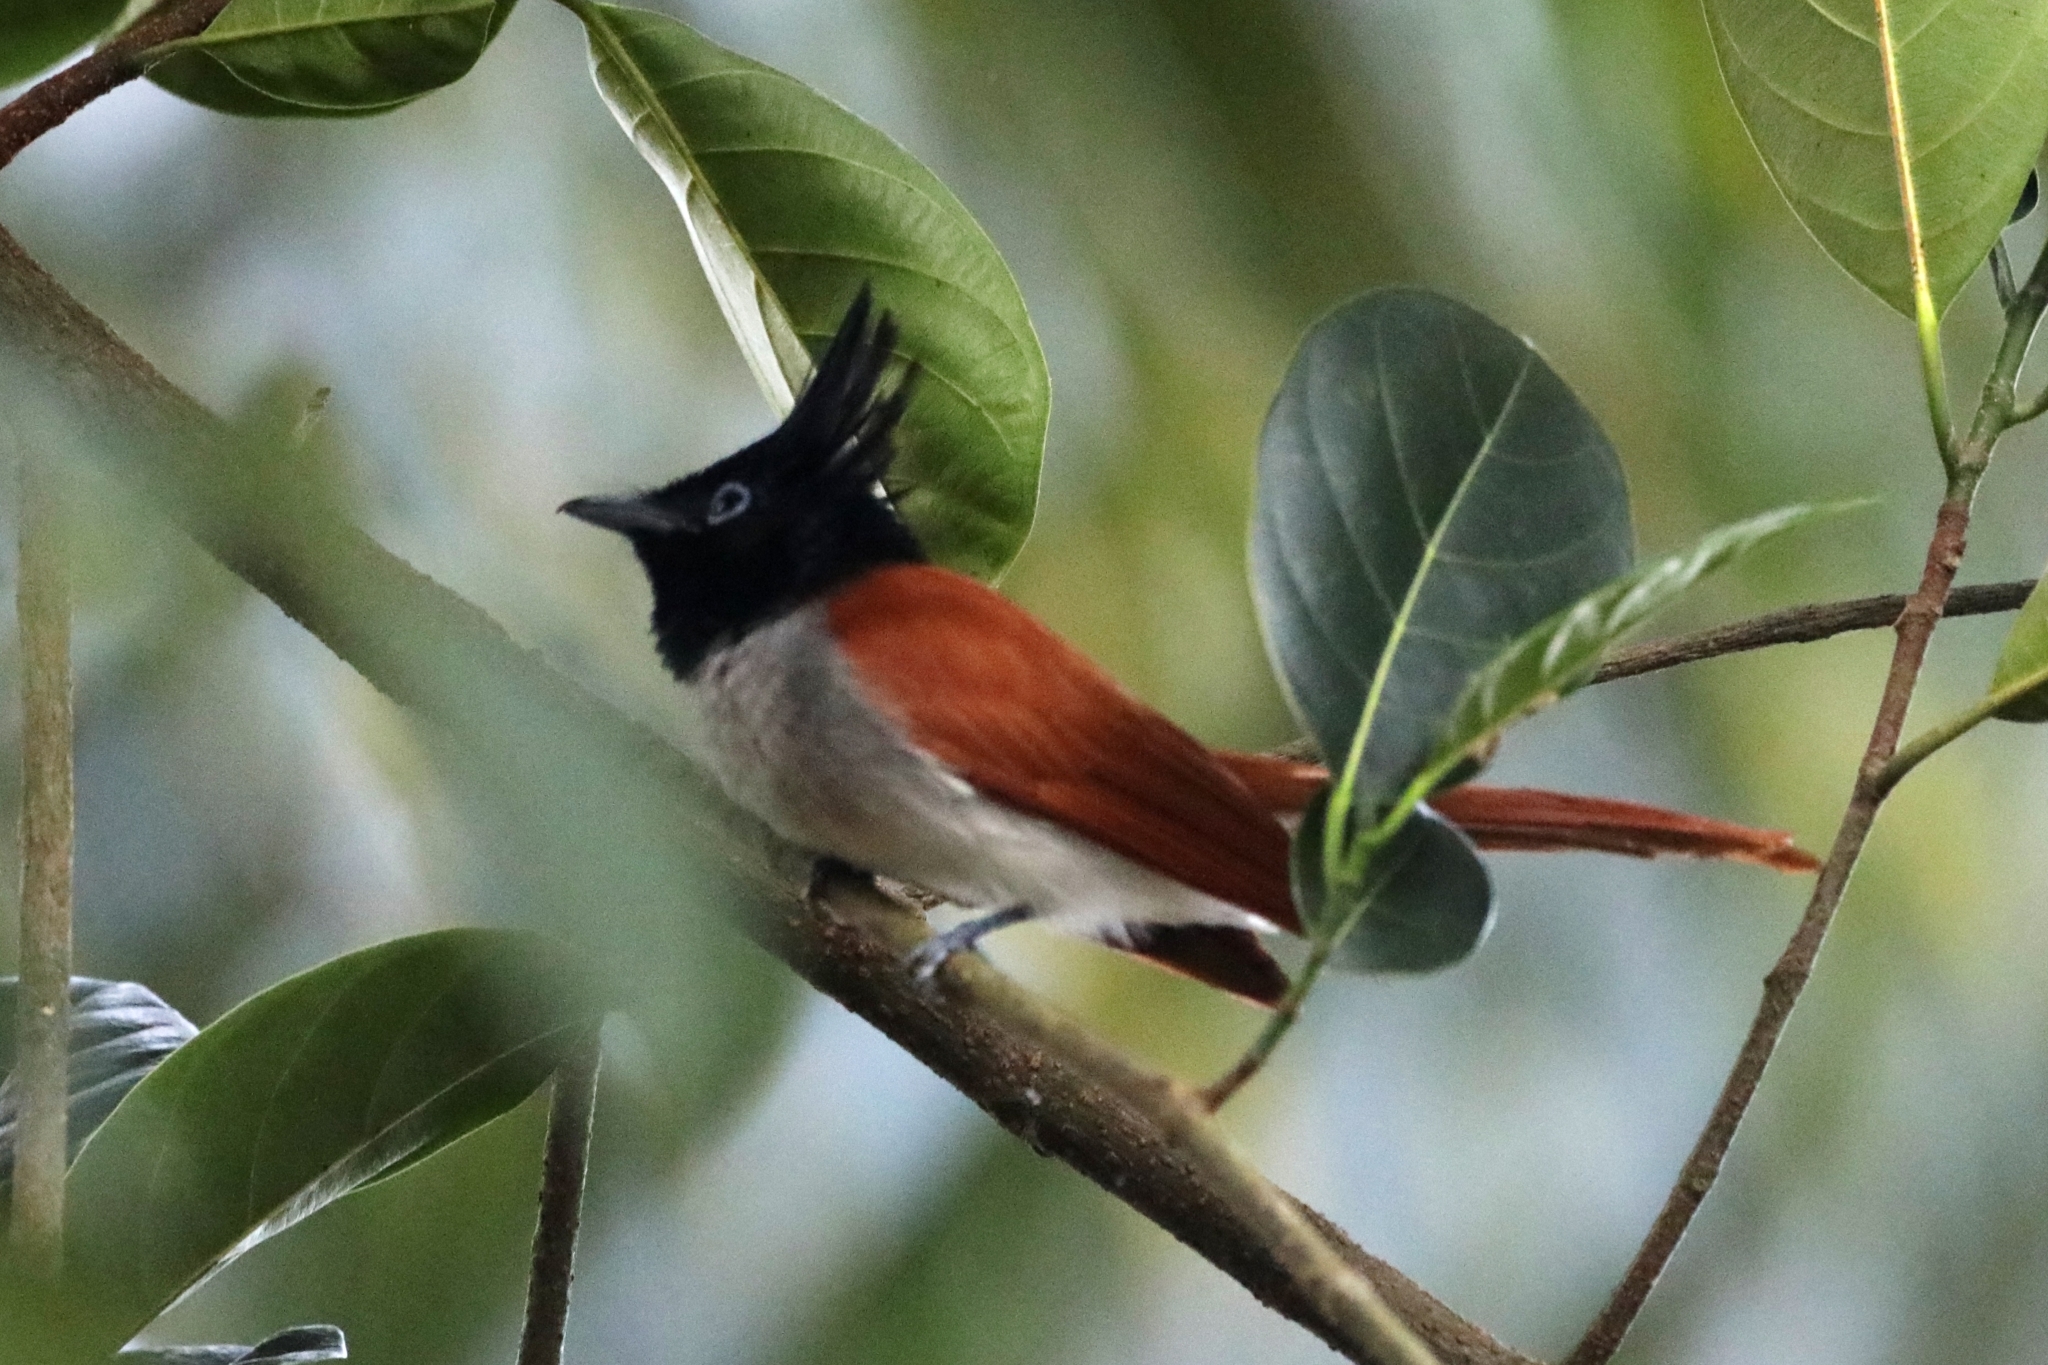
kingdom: Animalia
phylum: Chordata
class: Aves
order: Passeriformes
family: Monarchidae
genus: Terpsiphone
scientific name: Terpsiphone paradisi
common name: Indian paradise flycatcher
